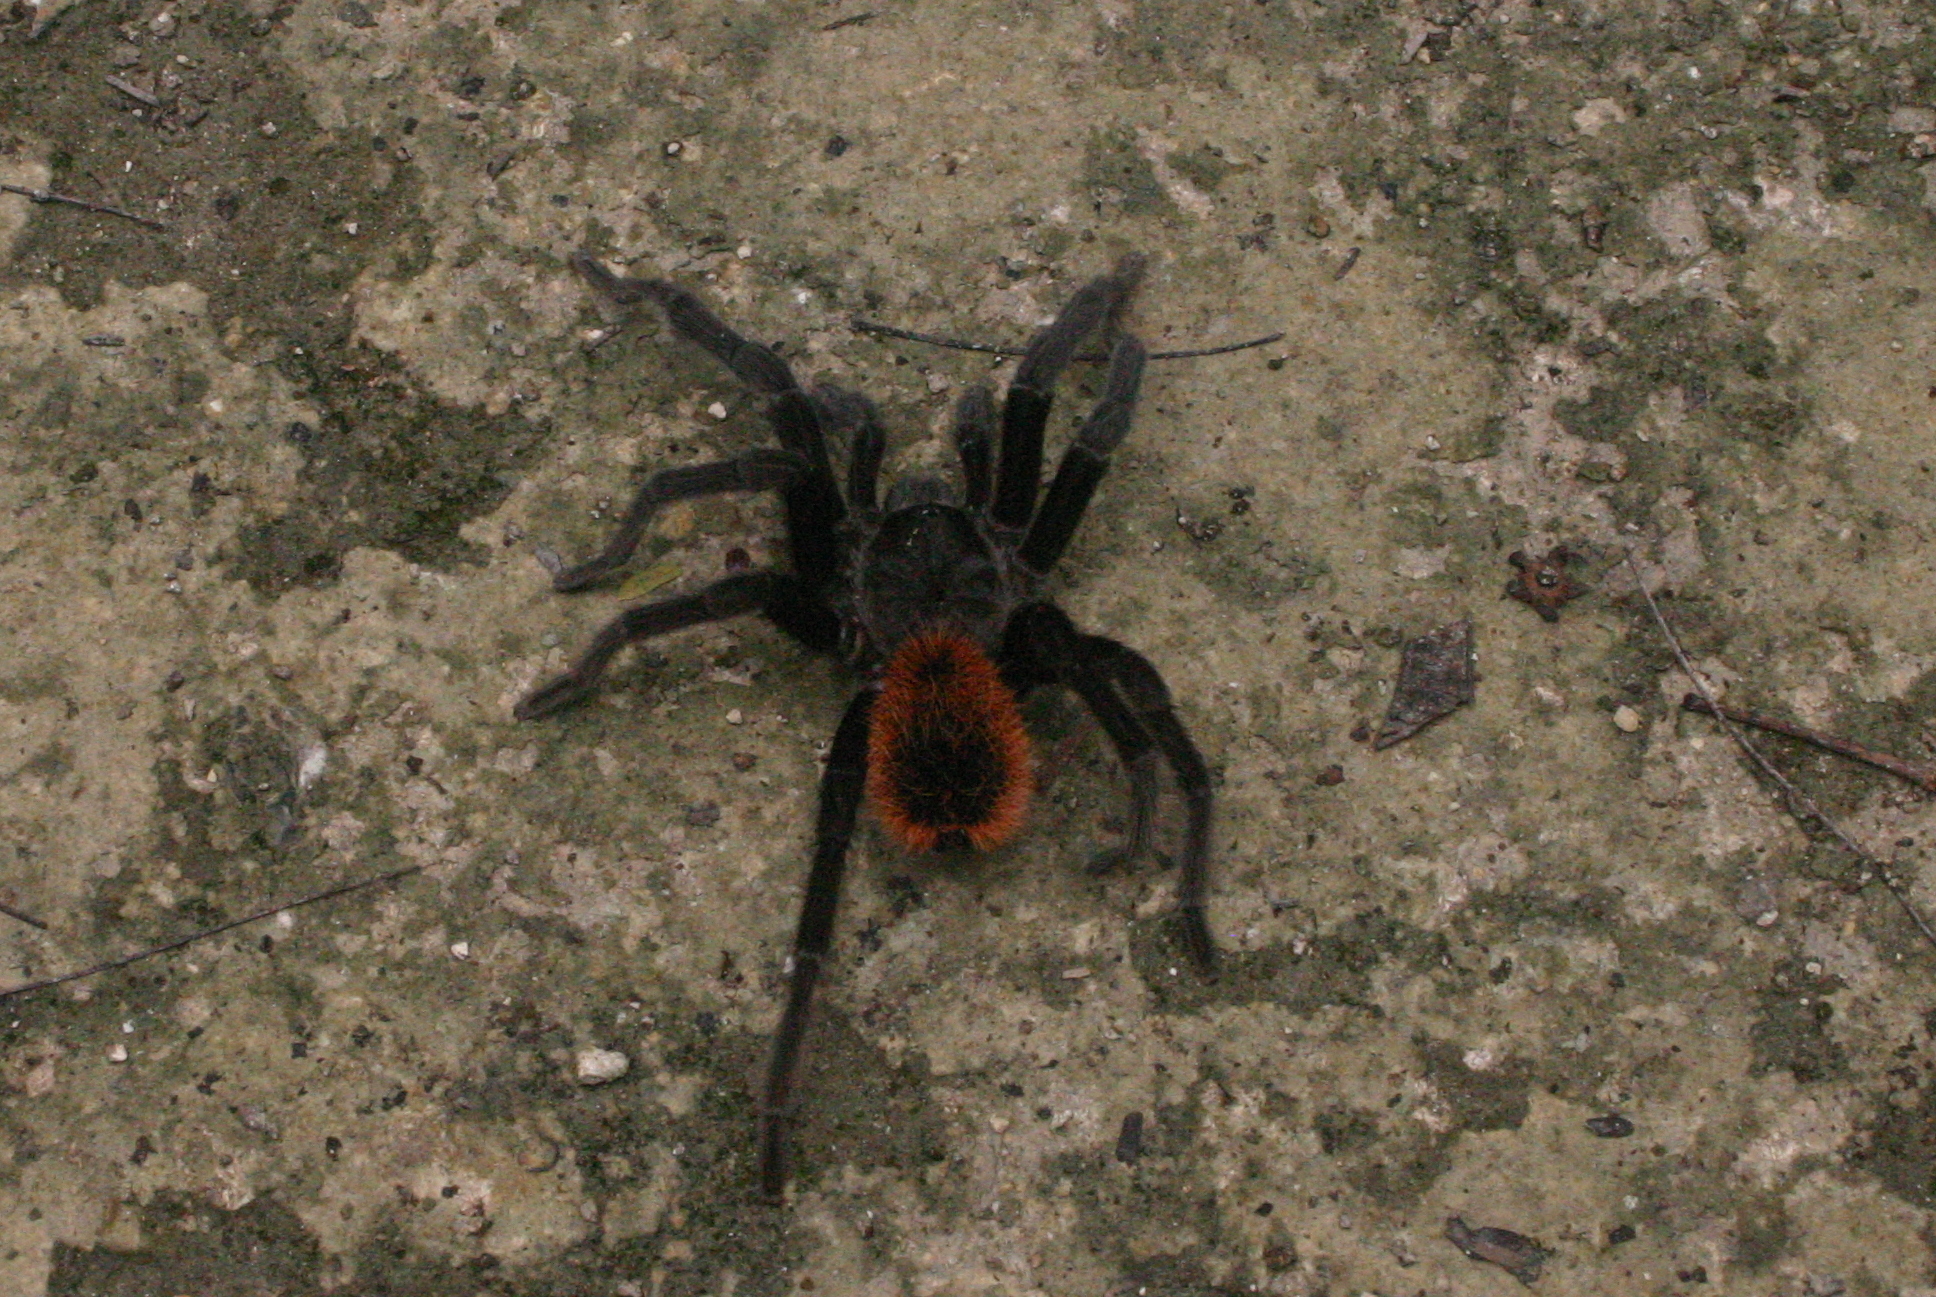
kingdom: Animalia
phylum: Arthropoda
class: Arachnida
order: Araneae
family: Theraphosidae
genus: Tliltocatl
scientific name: Tliltocatl epicureanus
